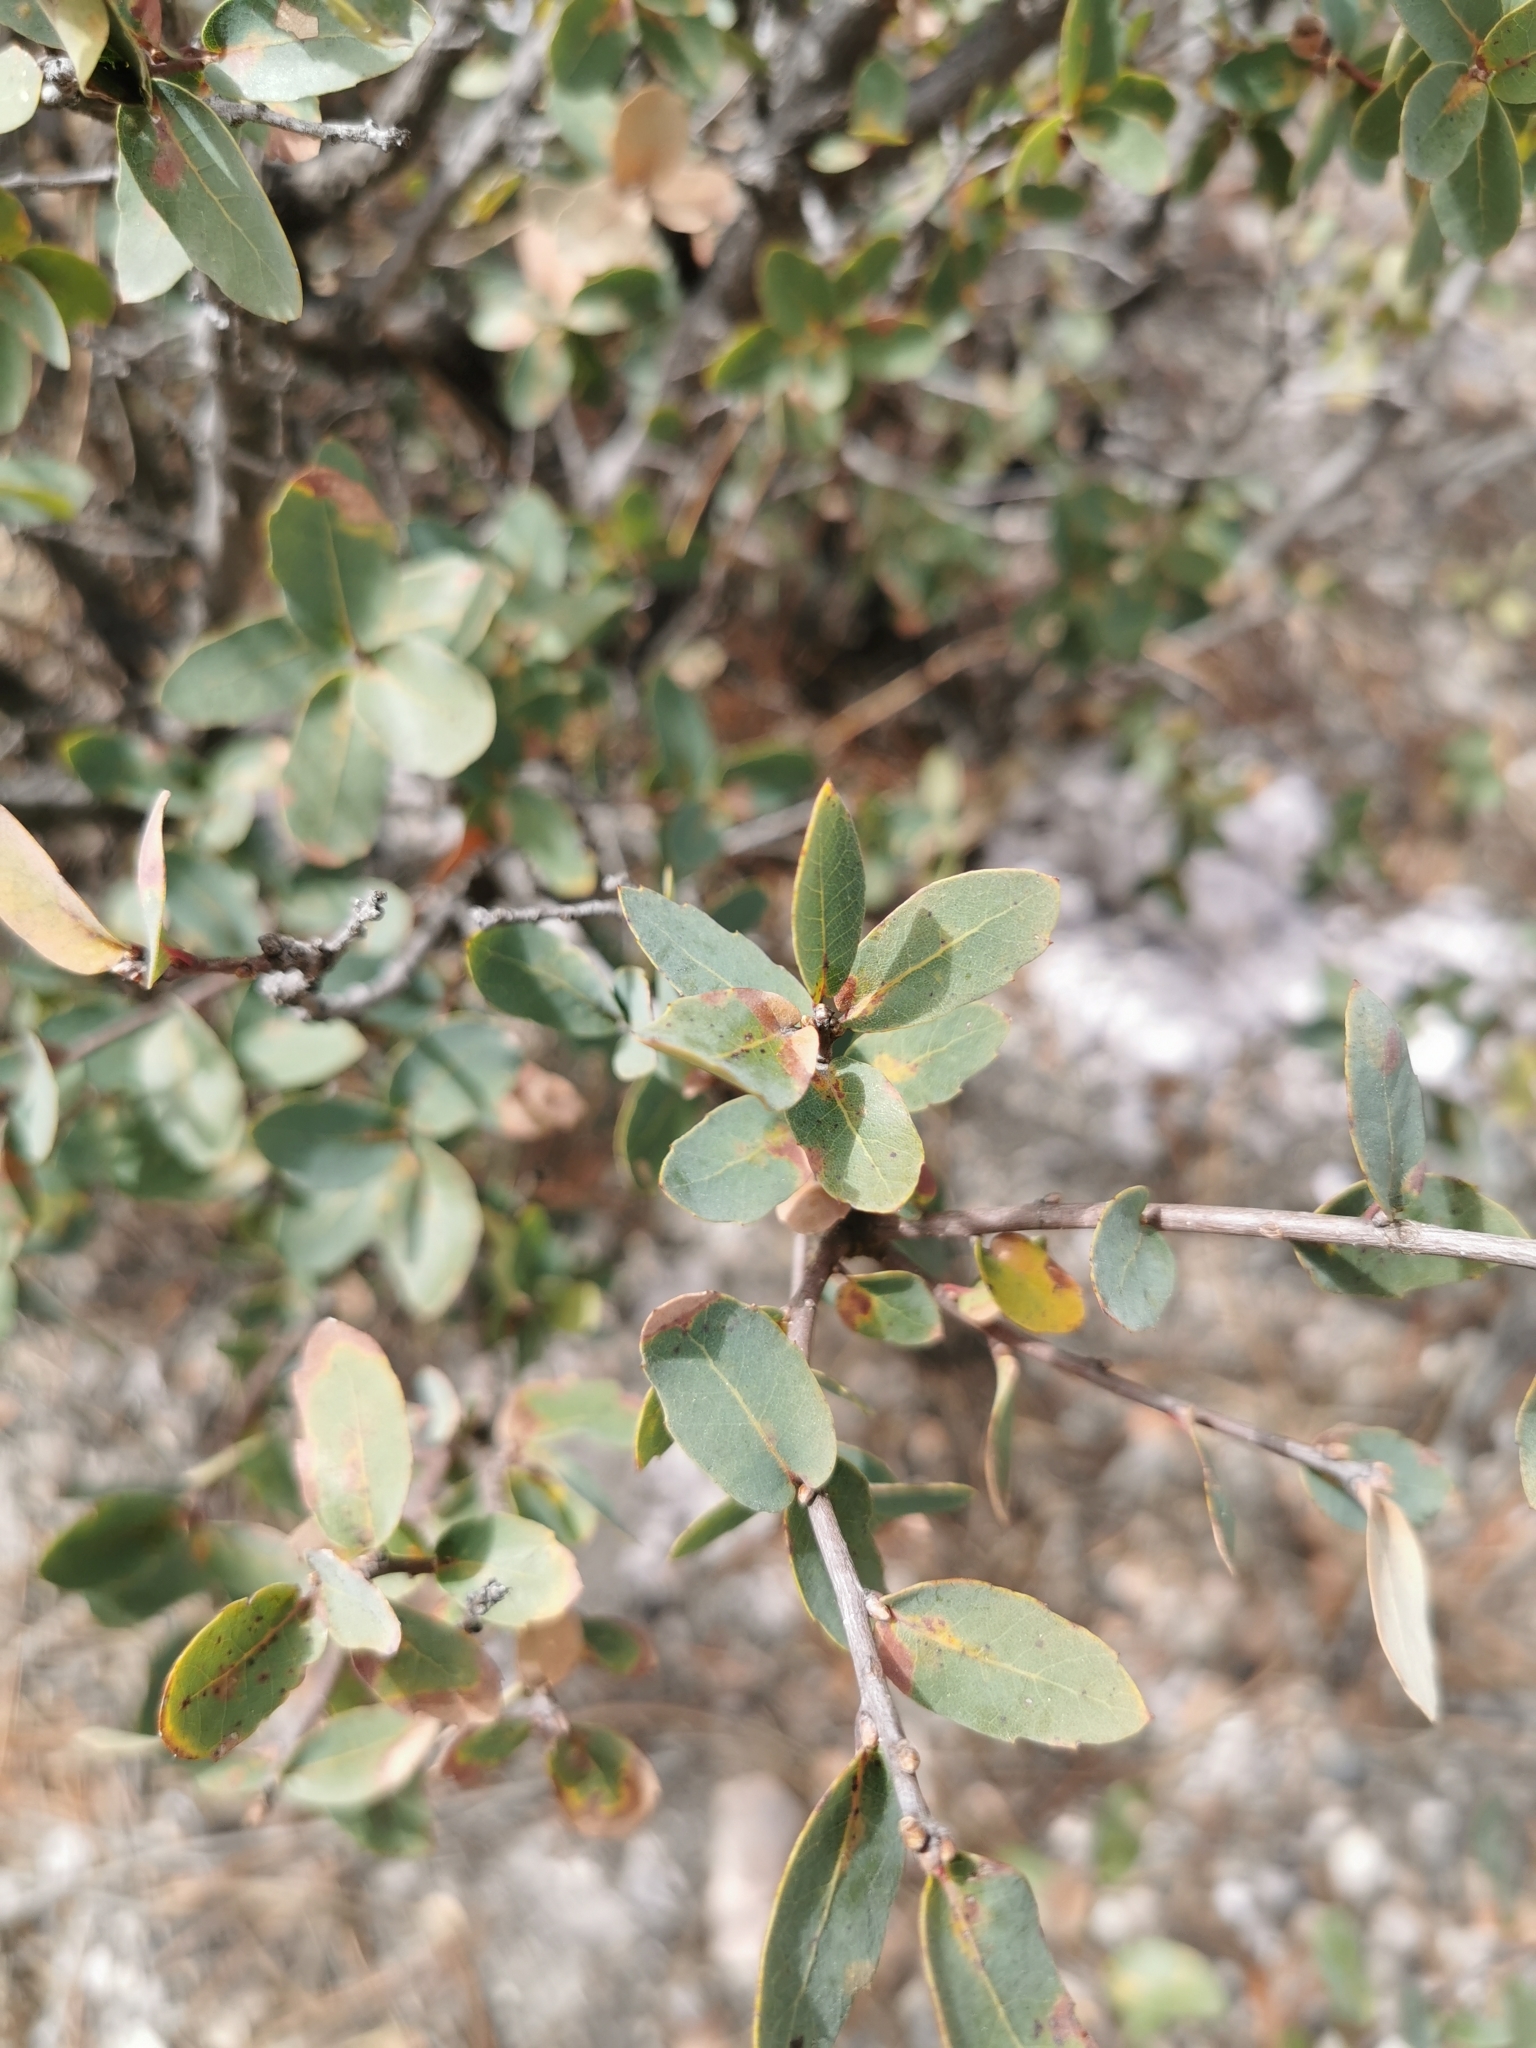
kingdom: Plantae
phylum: Tracheophyta
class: Magnoliopsida
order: Fagales
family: Fagaceae
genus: Quercus
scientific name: Quercus depressipes
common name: Davis mountain oak
